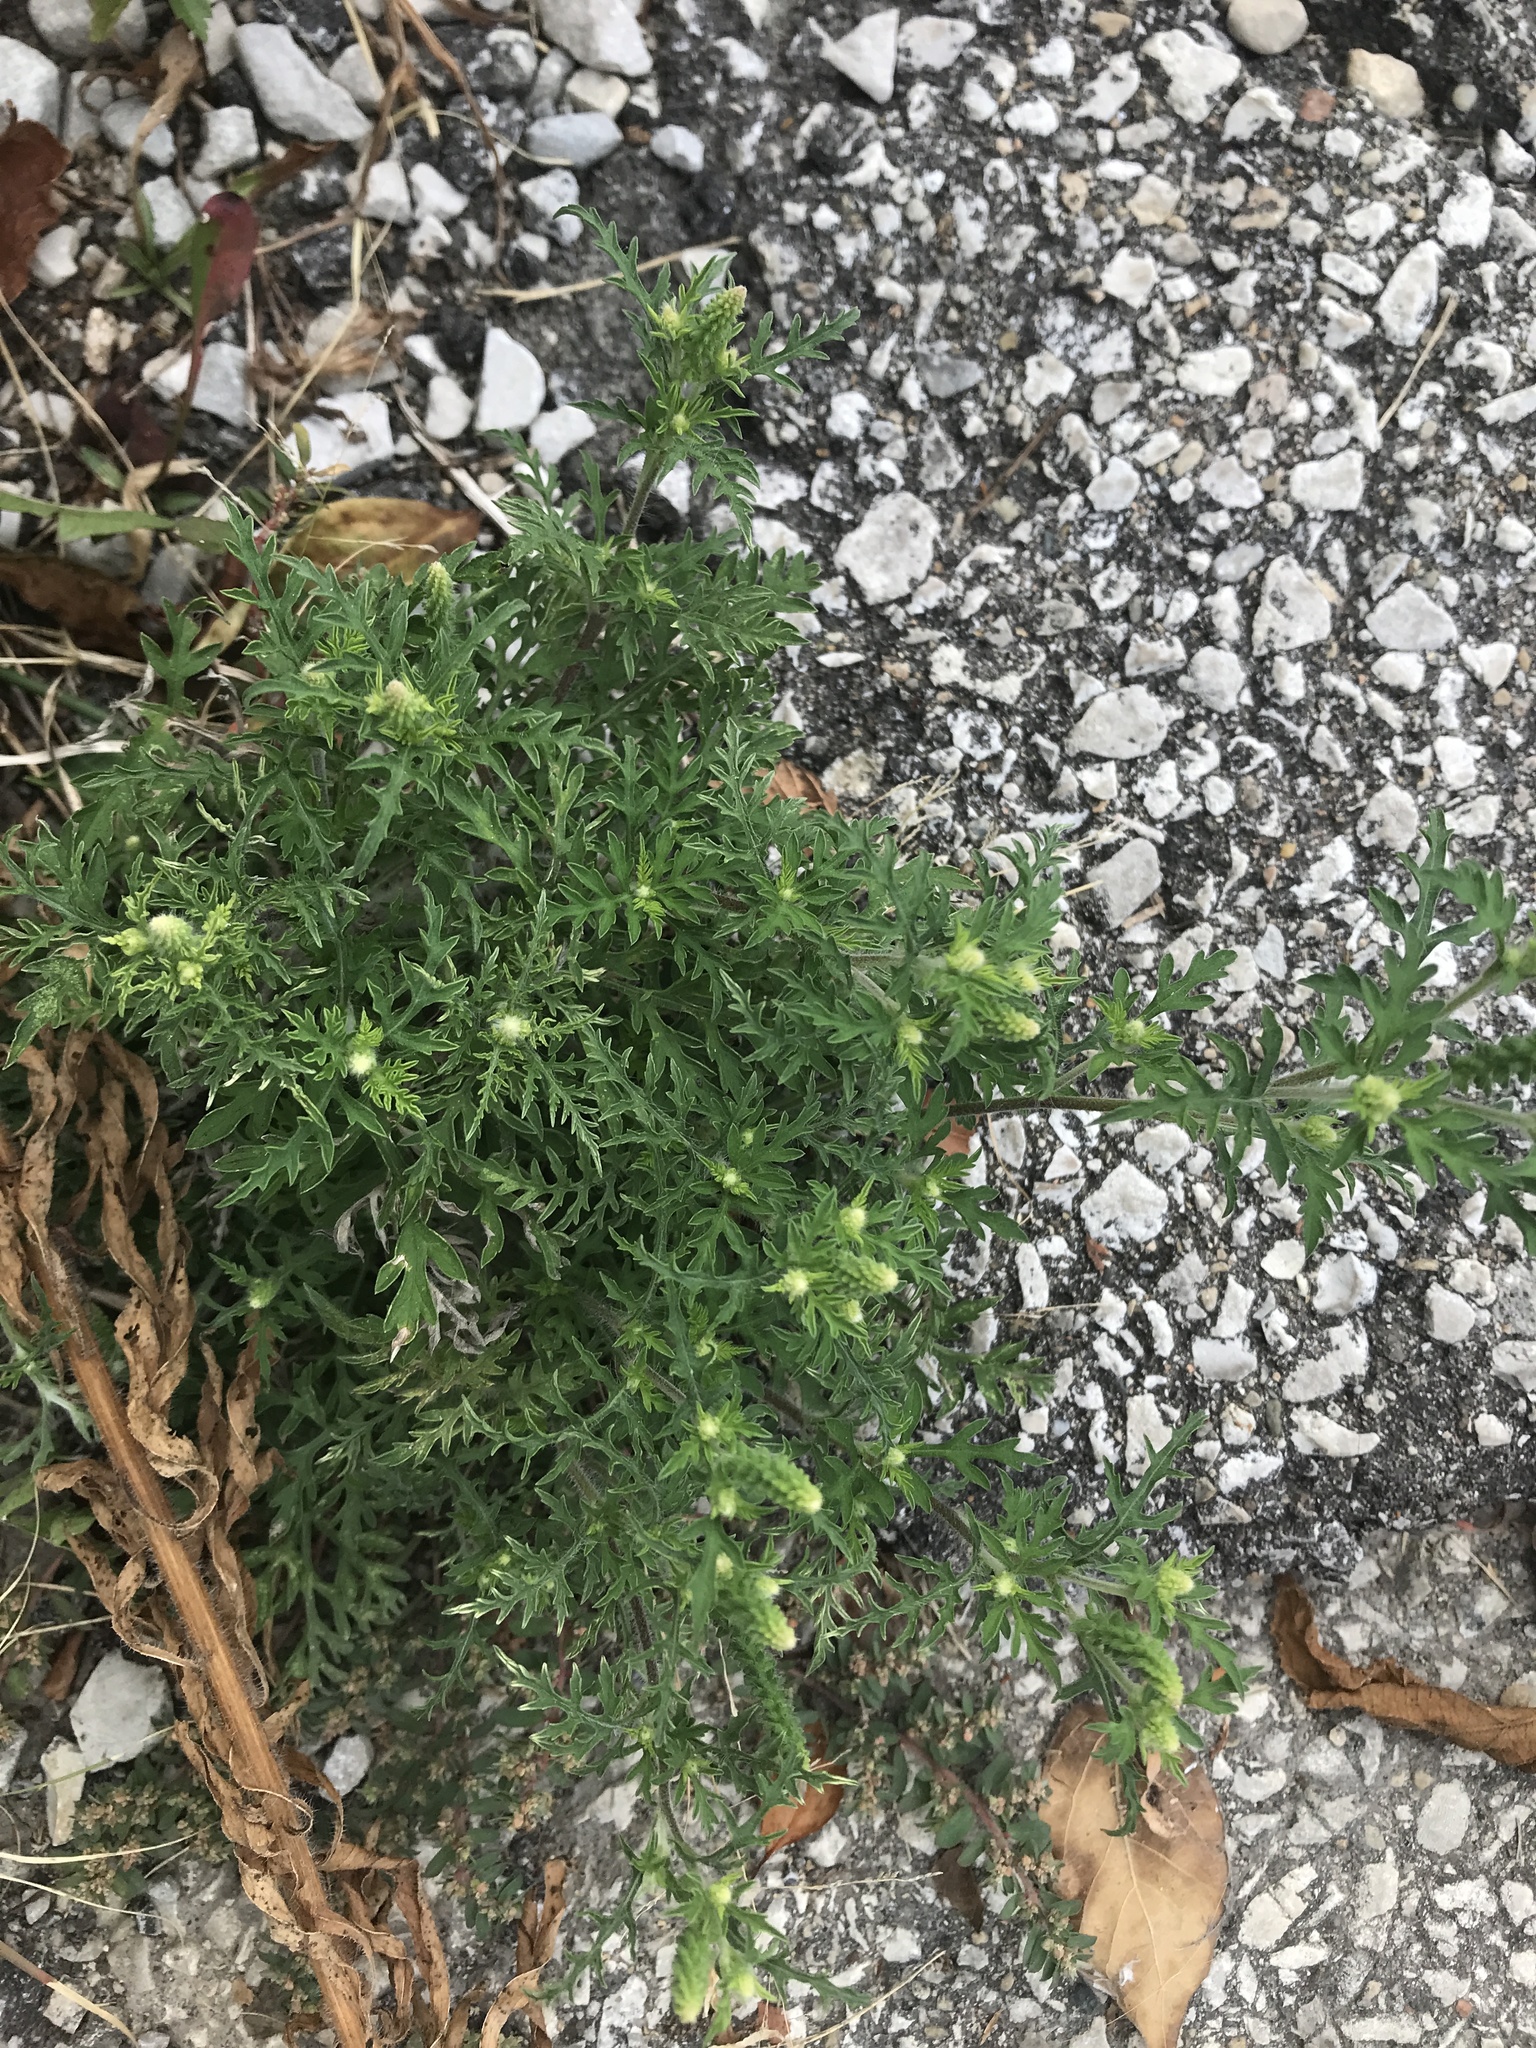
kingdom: Plantae
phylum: Tracheophyta
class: Magnoliopsida
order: Asterales
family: Asteraceae
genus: Ambrosia
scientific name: Ambrosia artemisiifolia
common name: Annual ragweed
